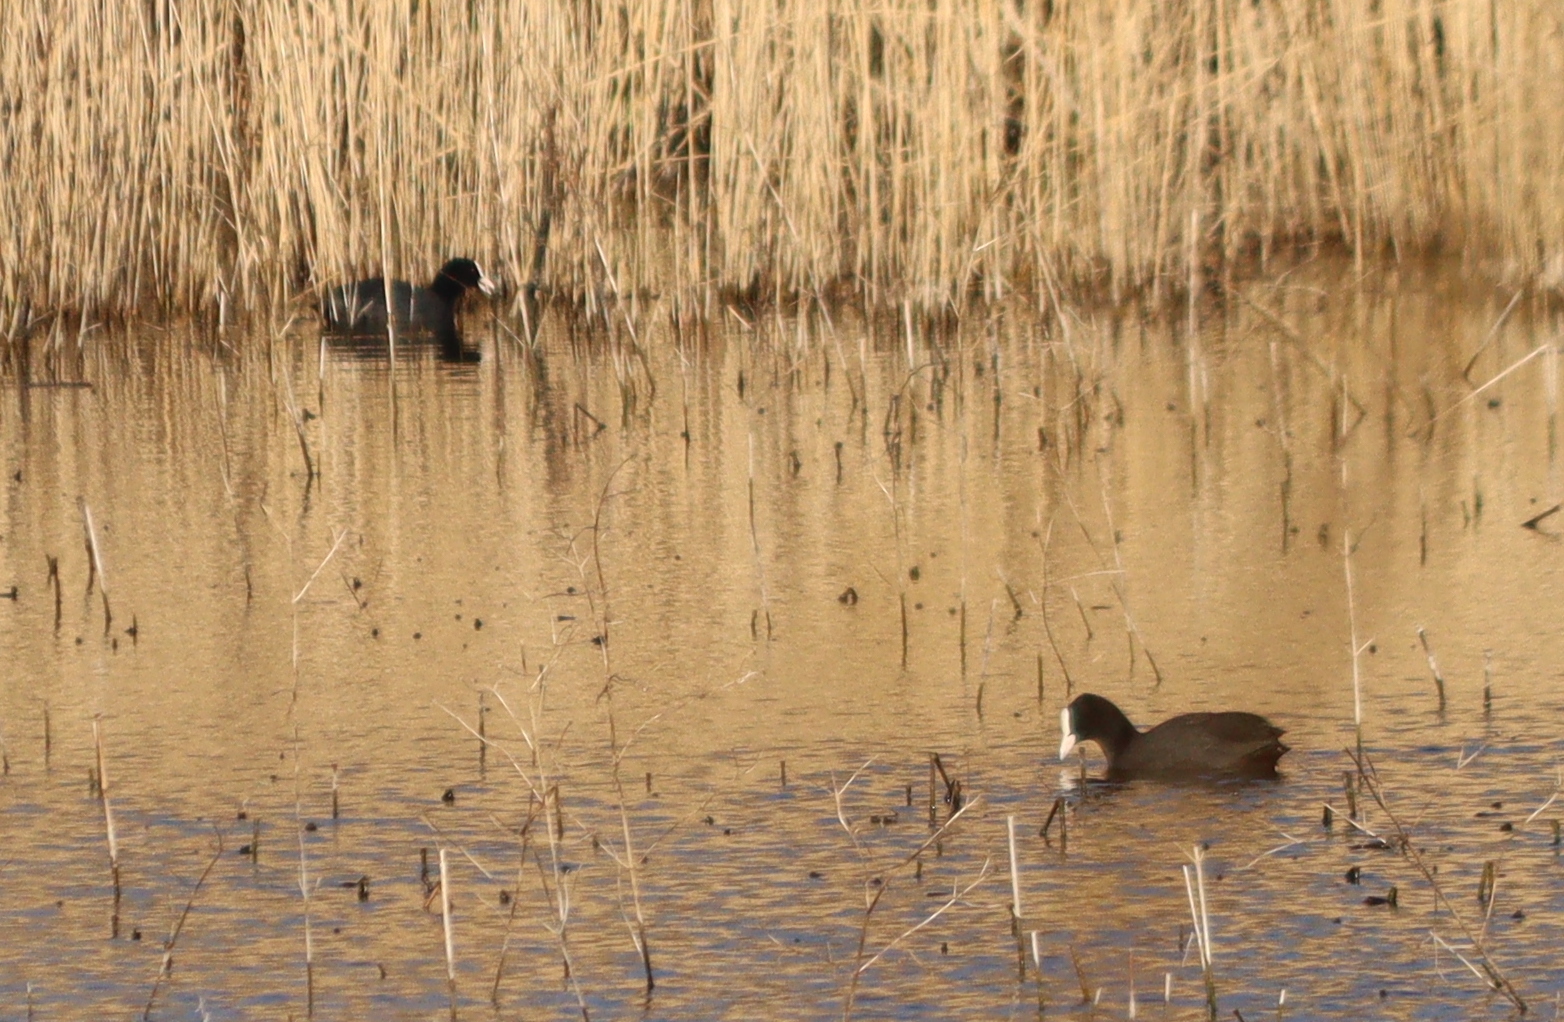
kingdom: Animalia
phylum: Chordata
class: Aves
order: Gruiformes
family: Rallidae
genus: Fulica
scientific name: Fulica atra
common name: Eurasian coot
